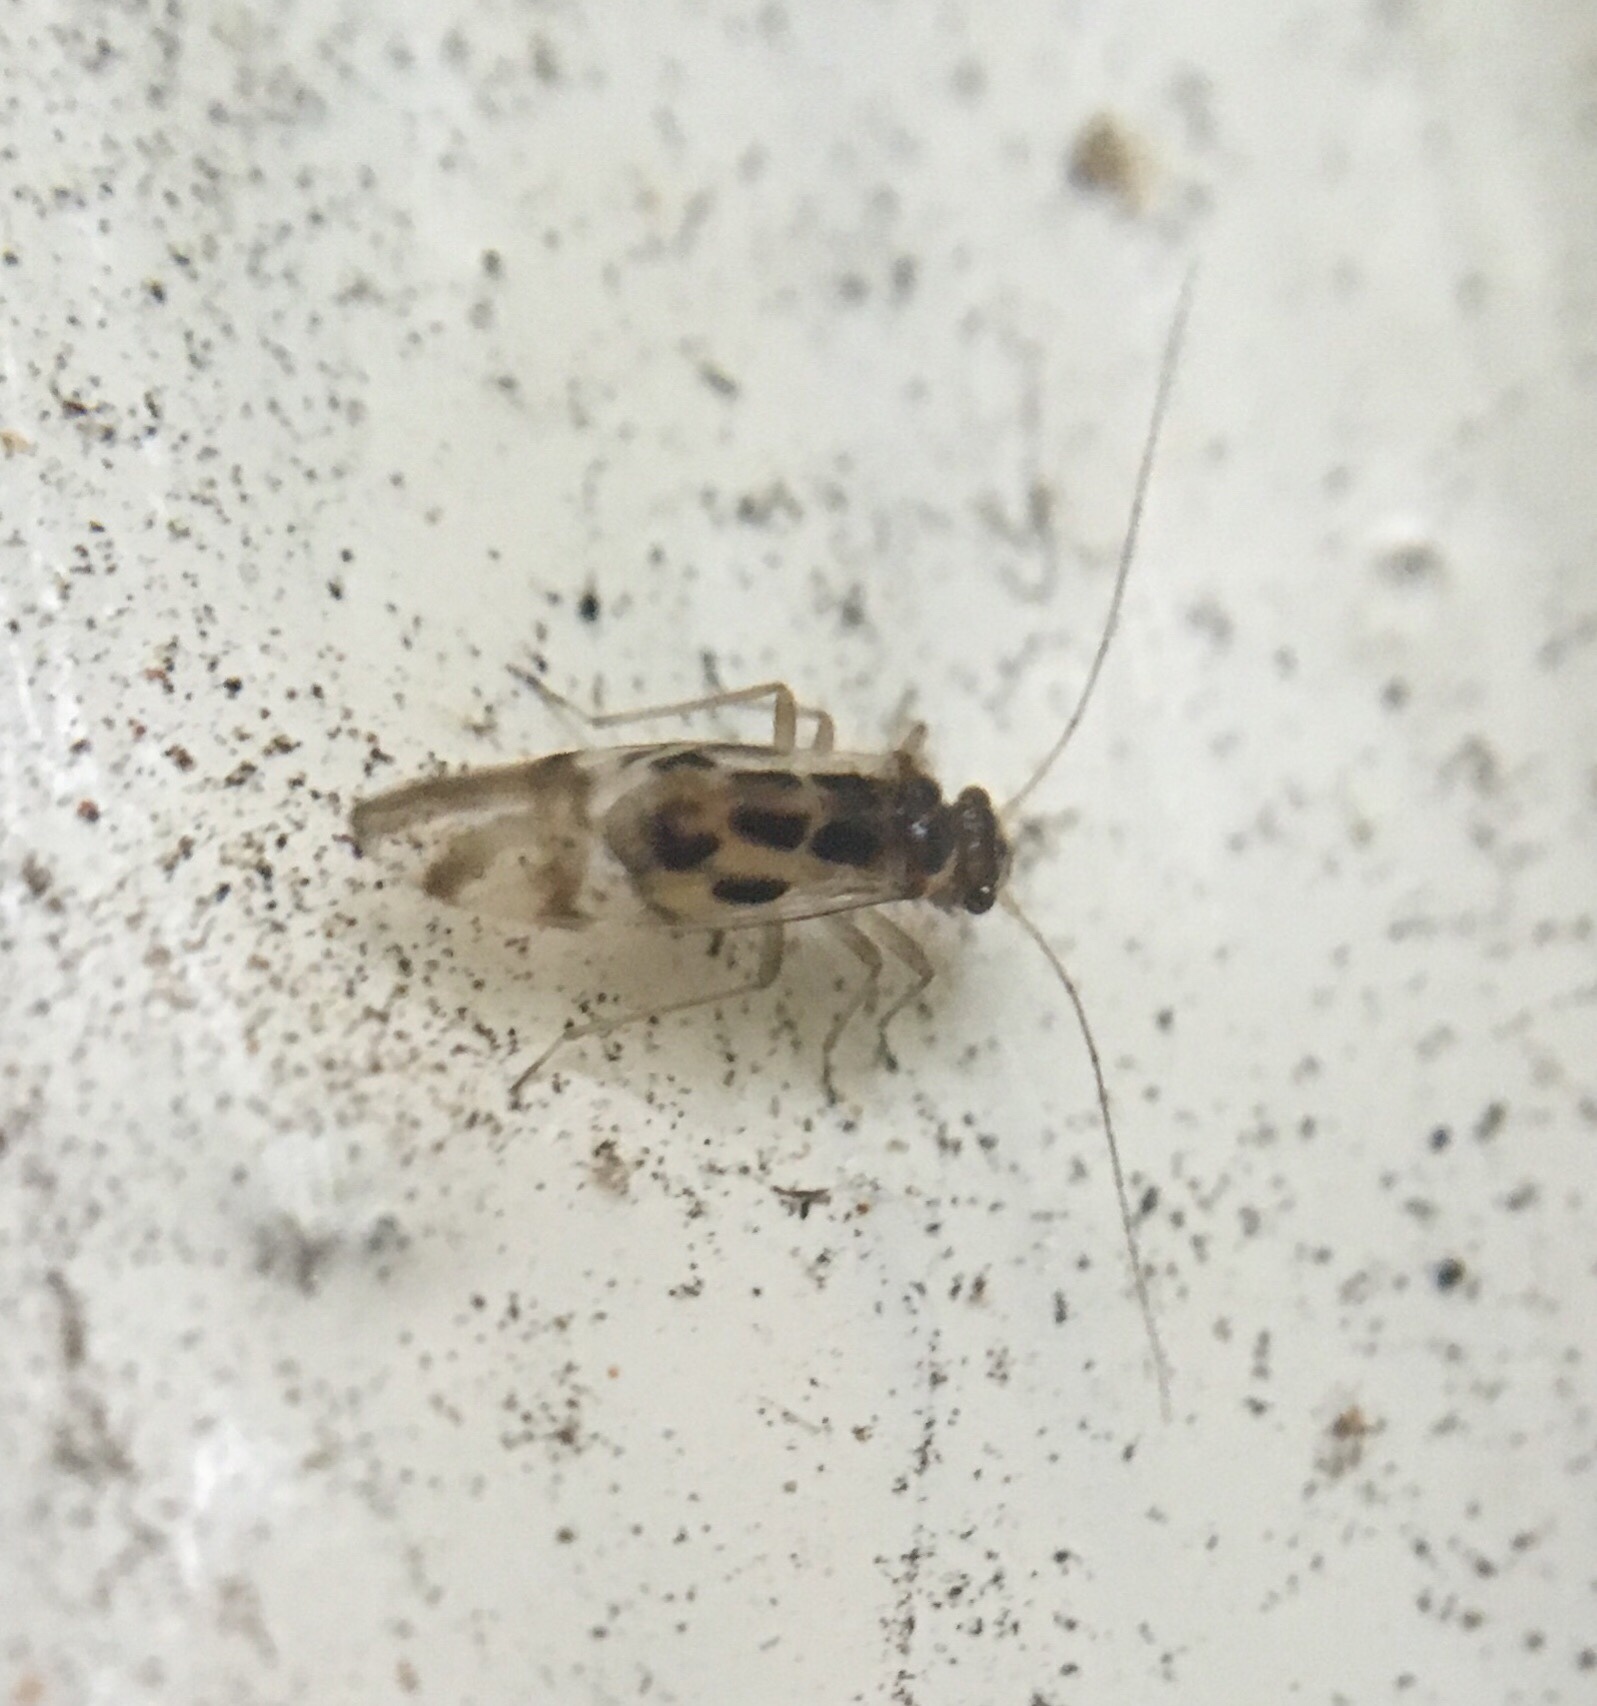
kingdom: Animalia
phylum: Arthropoda
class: Insecta
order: Psocodea
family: Stenopsocidae
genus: Graphopsocus
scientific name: Graphopsocus cruciatus
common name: Lizard bark louse
